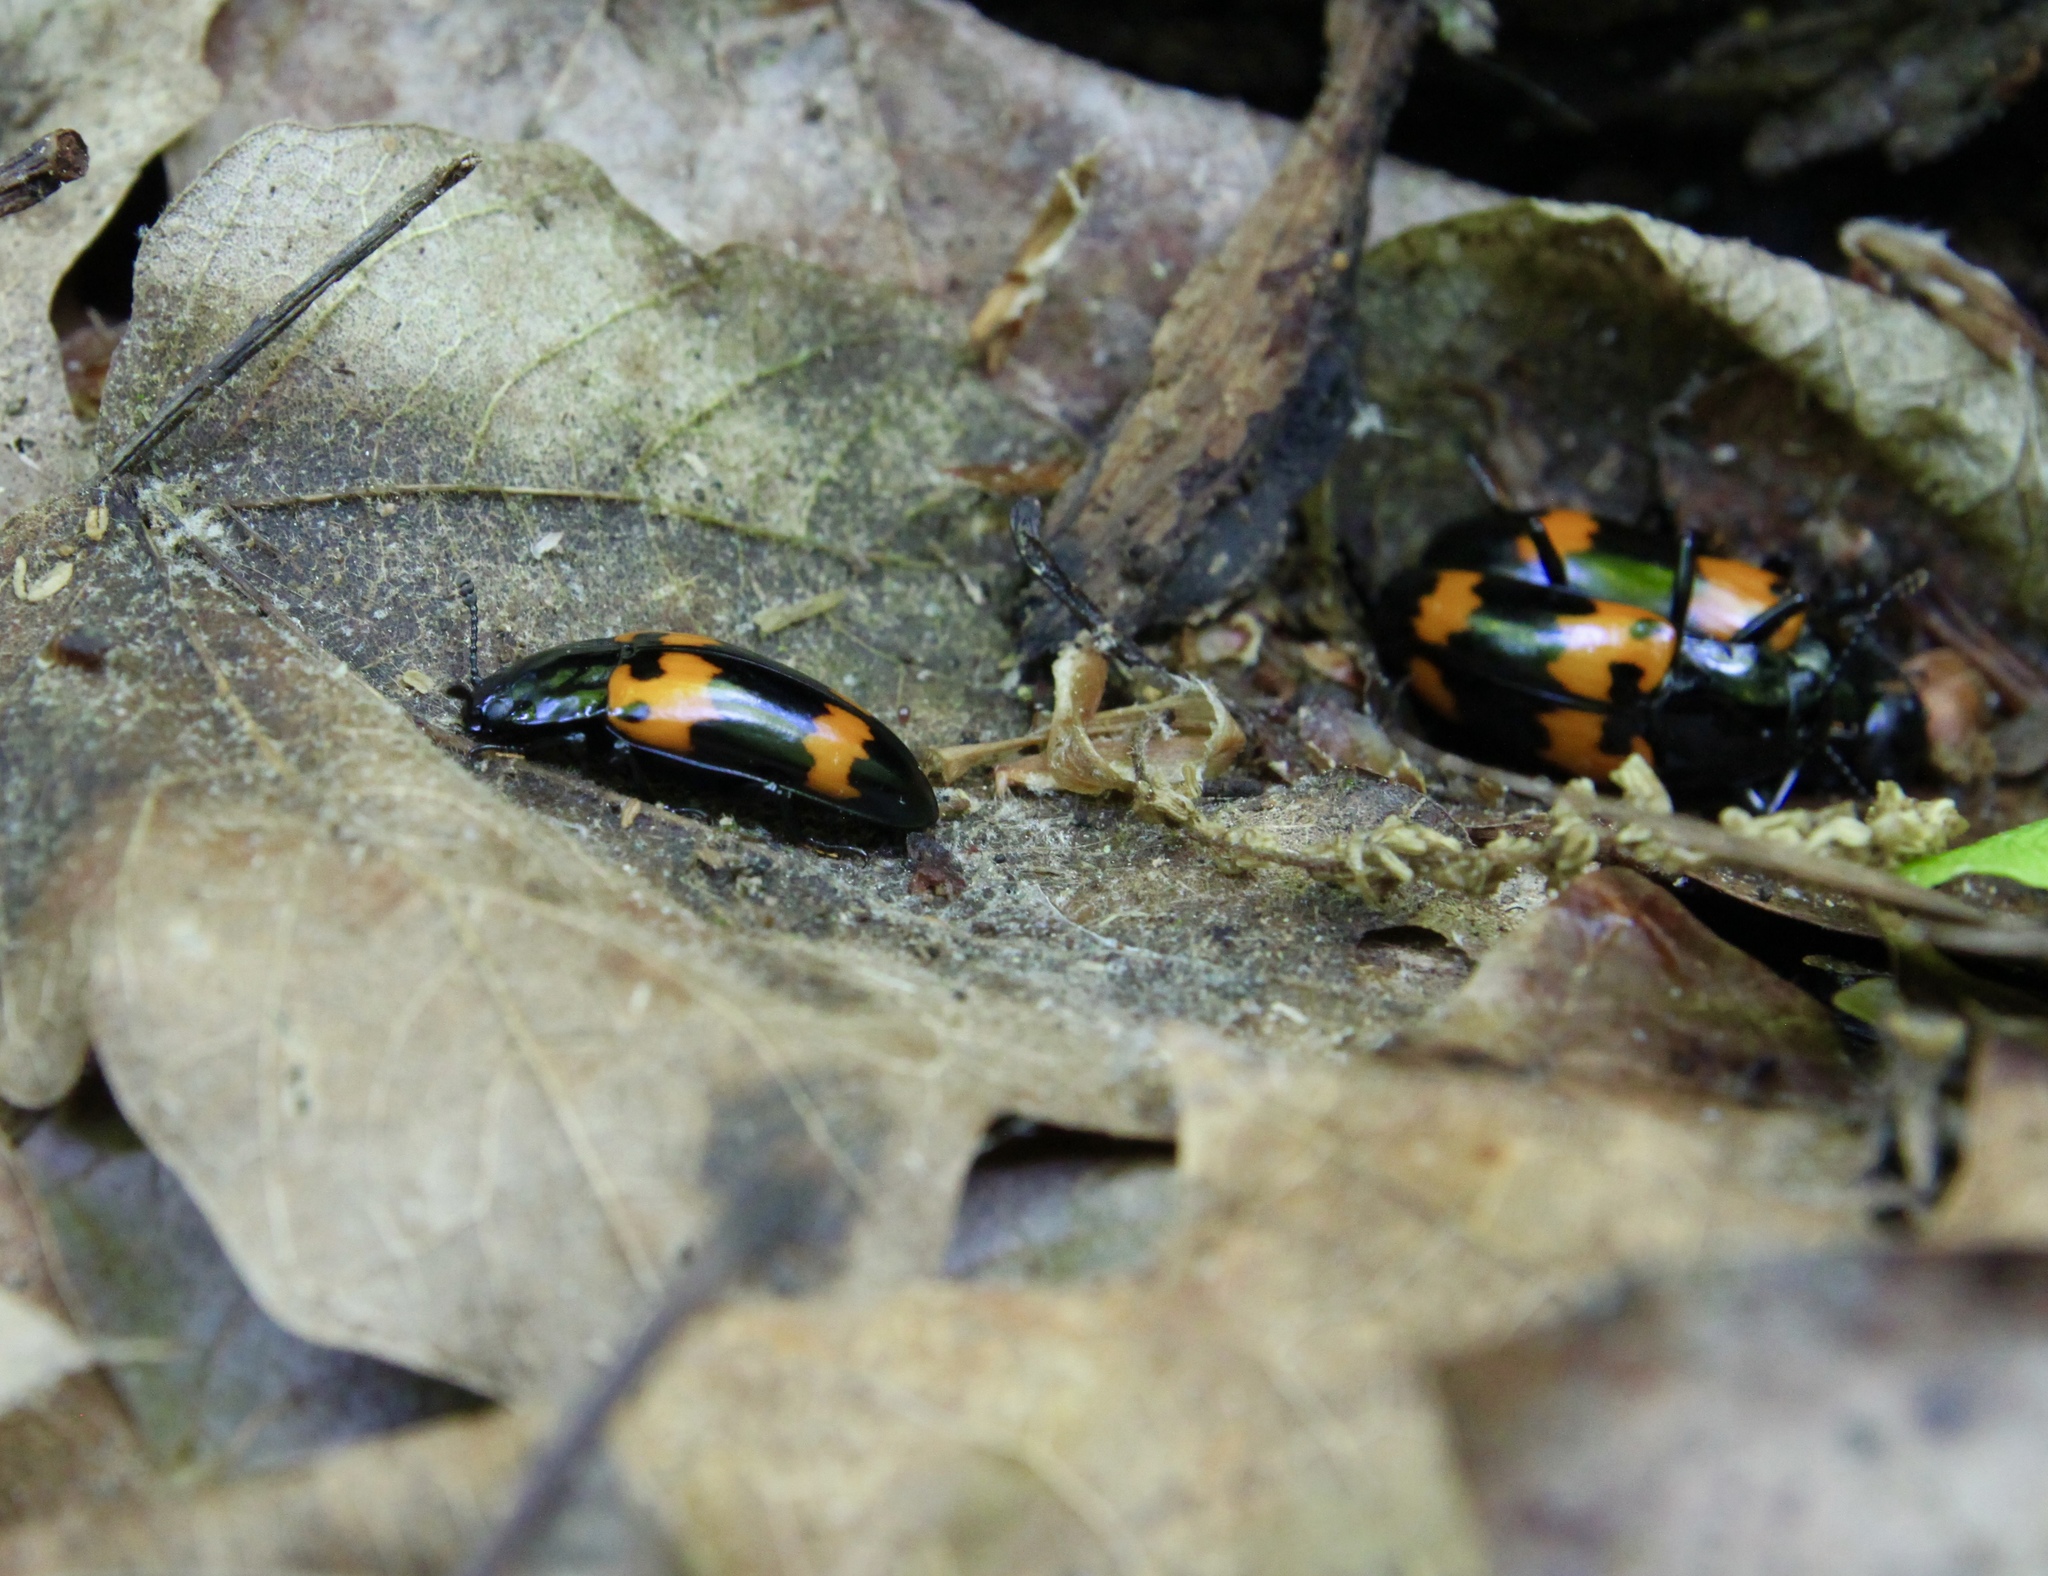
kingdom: Animalia
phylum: Arthropoda
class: Insecta
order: Coleoptera
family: Erotylidae
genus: Megalodacne
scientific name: Megalodacne heros
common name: Pleasing fungus beetle
